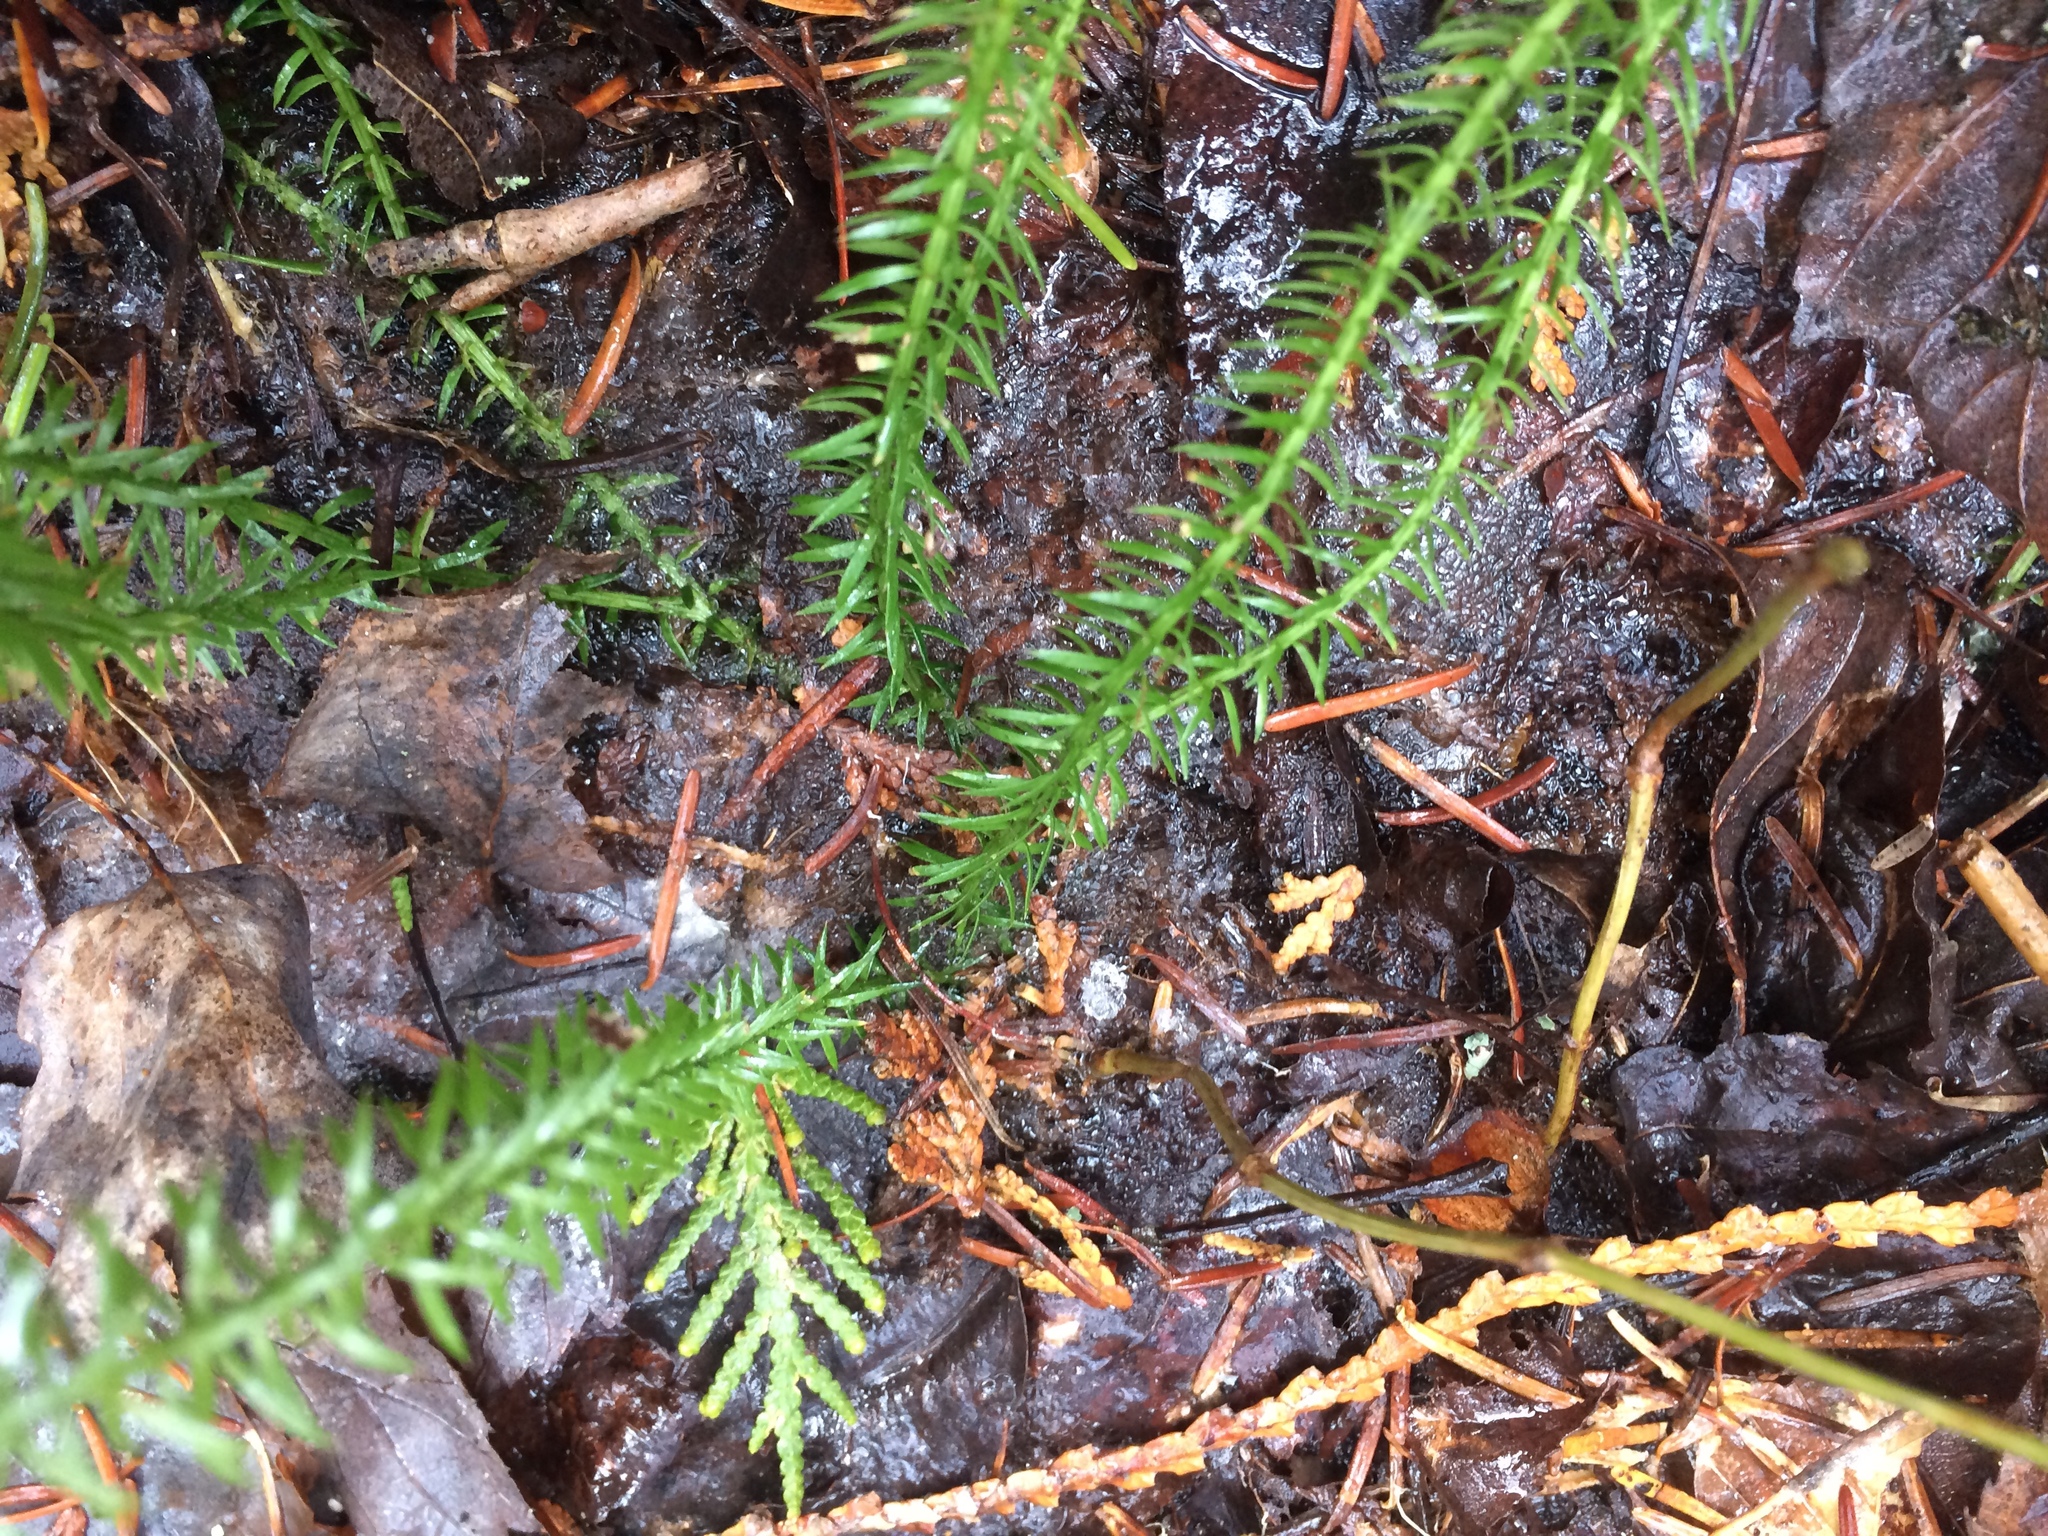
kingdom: Plantae
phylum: Tracheophyta
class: Lycopodiopsida
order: Lycopodiales
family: Lycopodiaceae
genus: Spinulum
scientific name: Spinulum annotinum
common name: Interrupted club-moss
